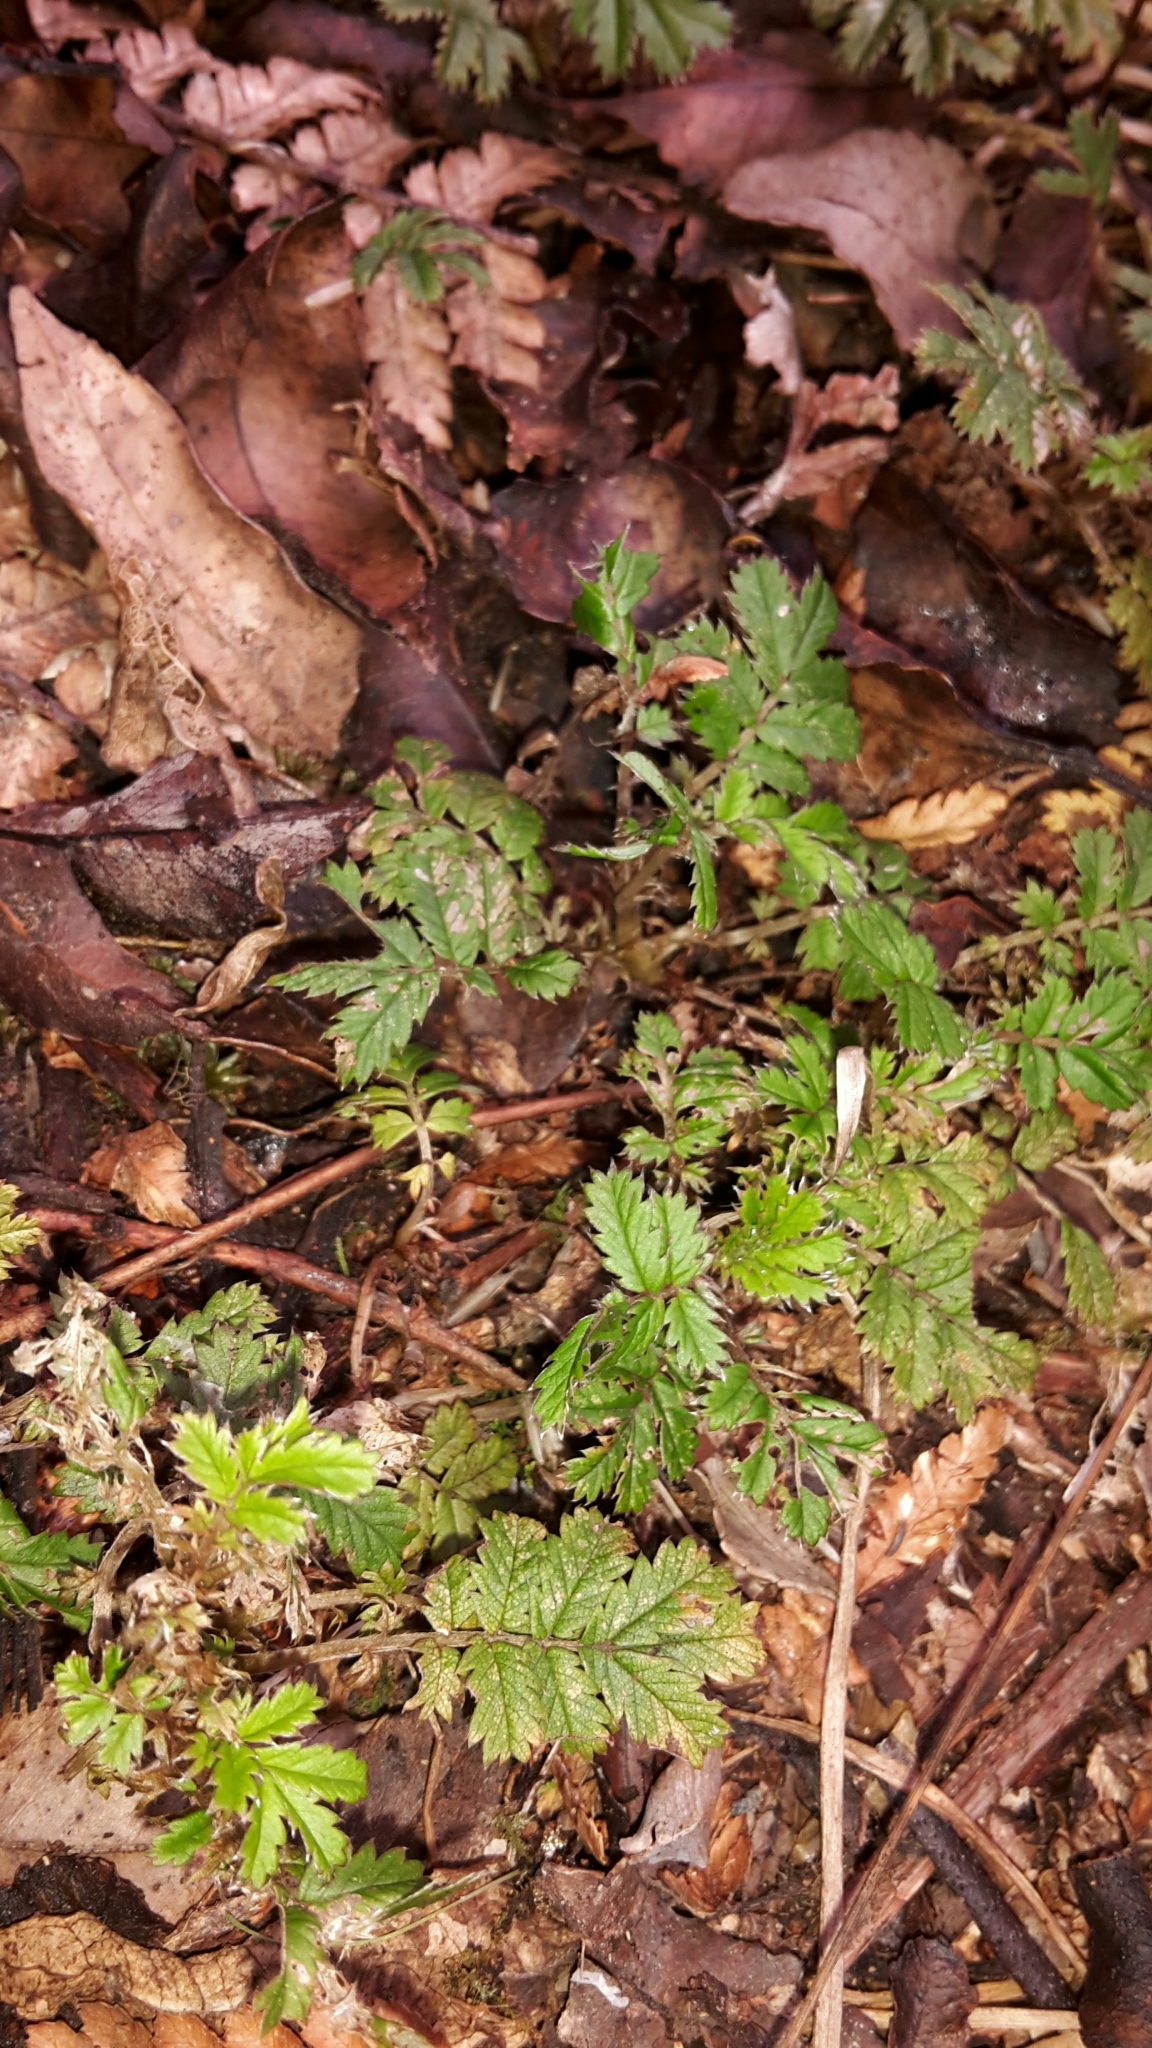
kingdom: Plantae
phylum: Tracheophyta
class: Magnoliopsida
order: Rosales
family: Rosaceae
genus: Acaena
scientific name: Acaena anserinifolia
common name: Bronze pirri-pirri-bur
